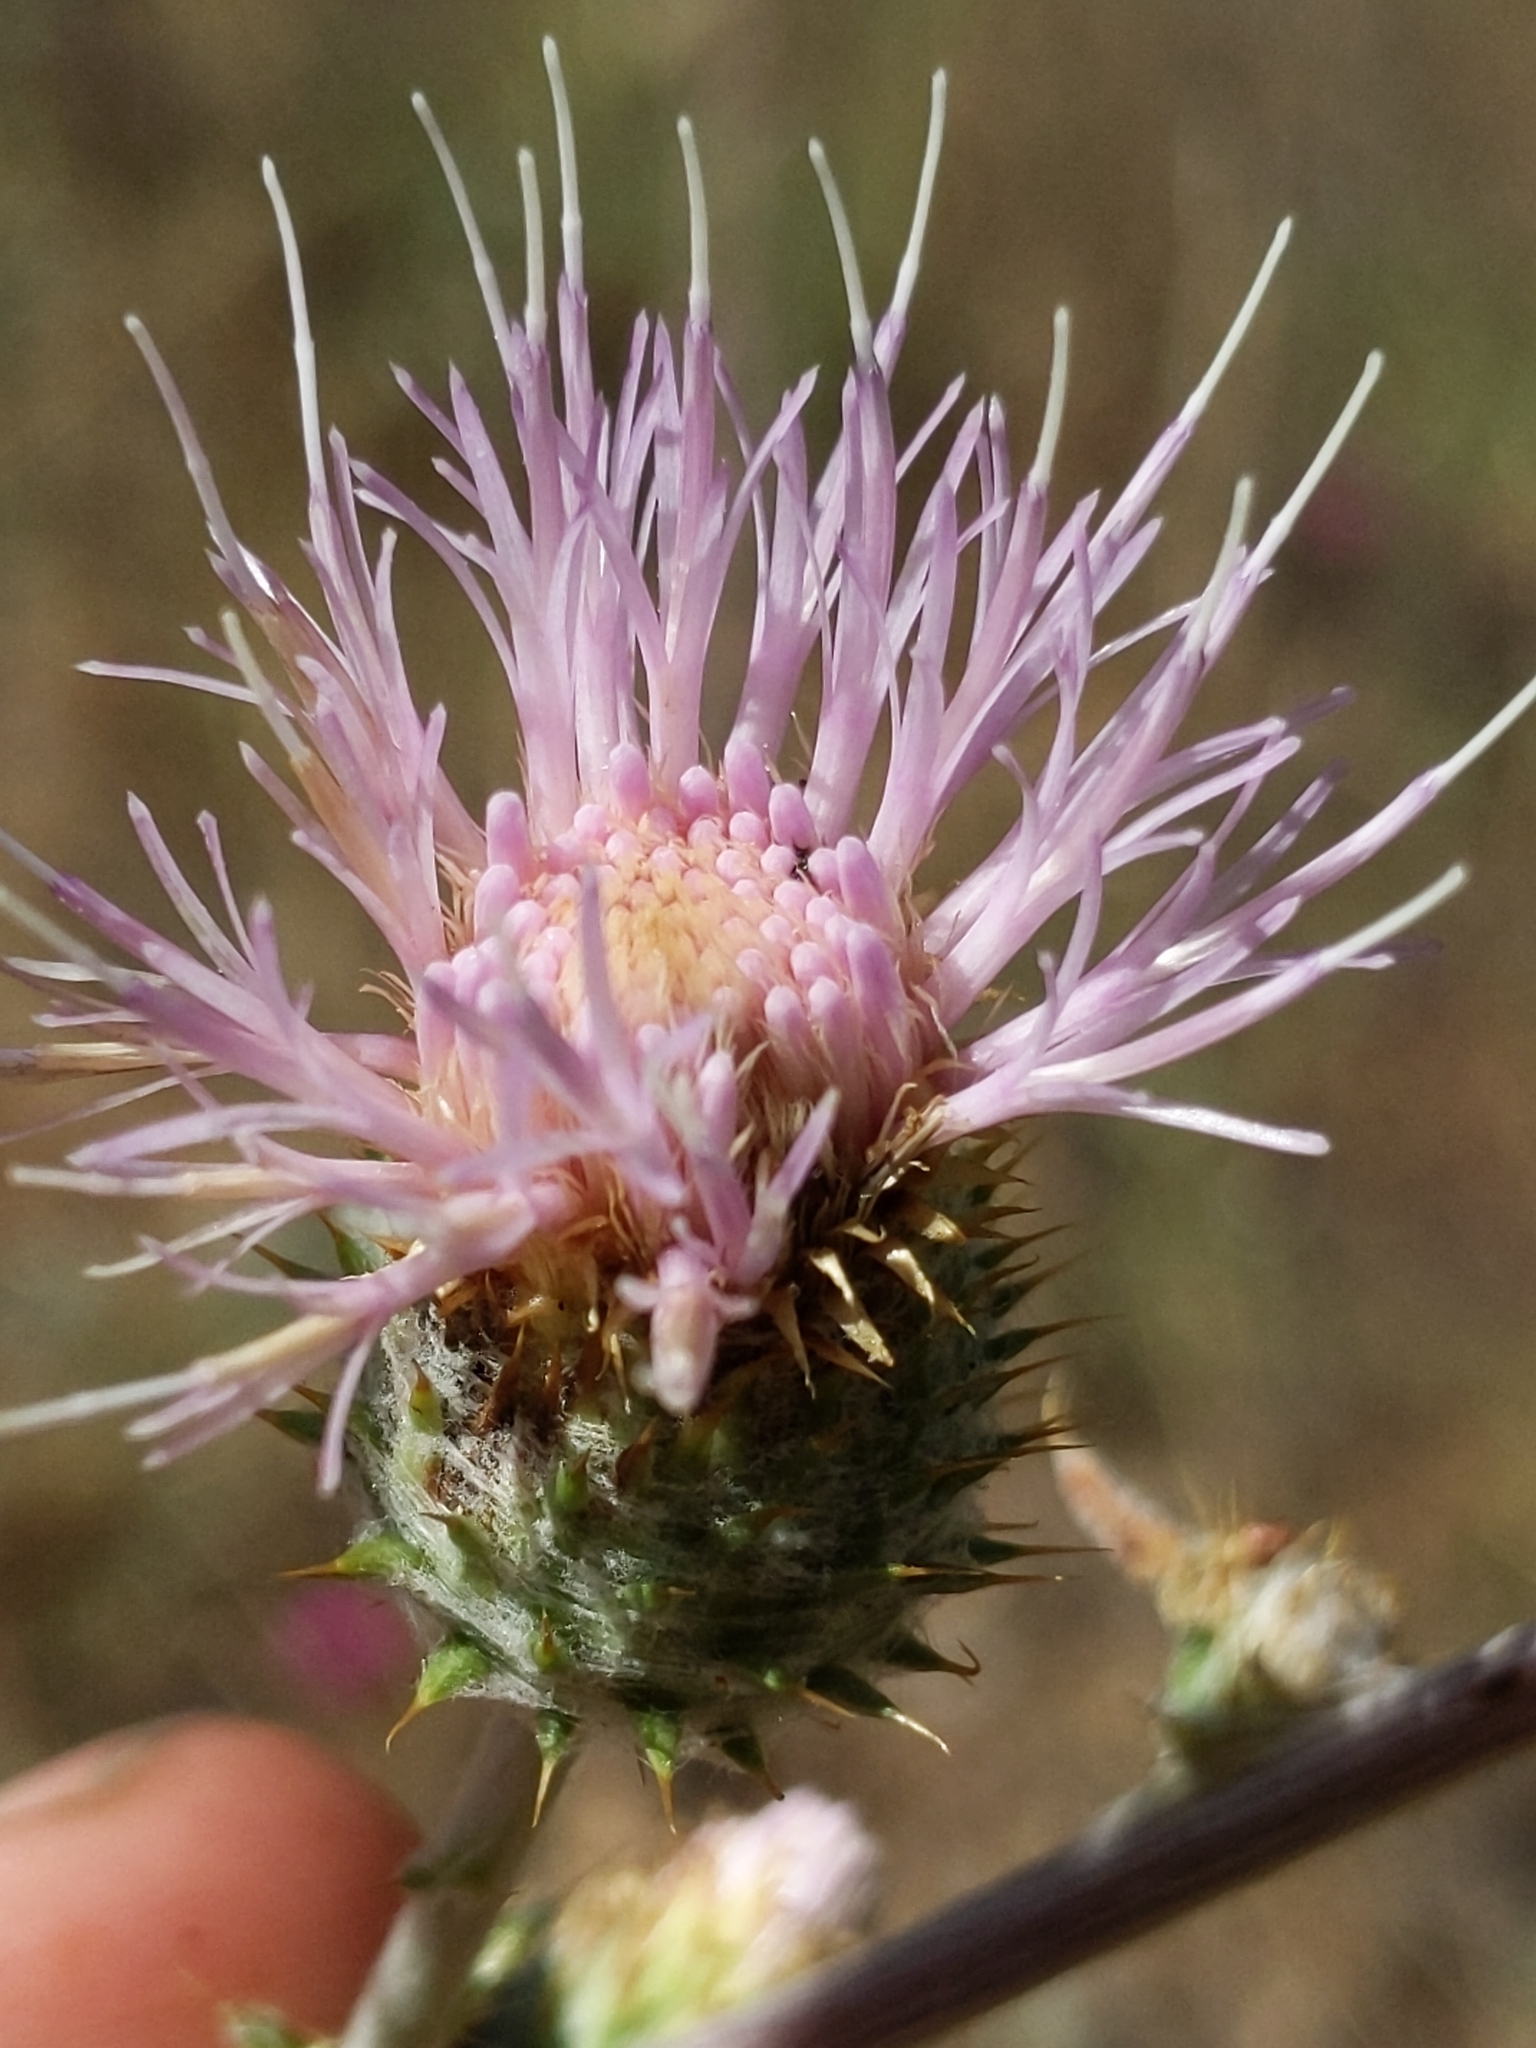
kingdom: Plantae
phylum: Tracheophyta
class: Magnoliopsida
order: Asterales
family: Asteraceae
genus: Cirsium
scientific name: Cirsium occidentale
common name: Western thistle
